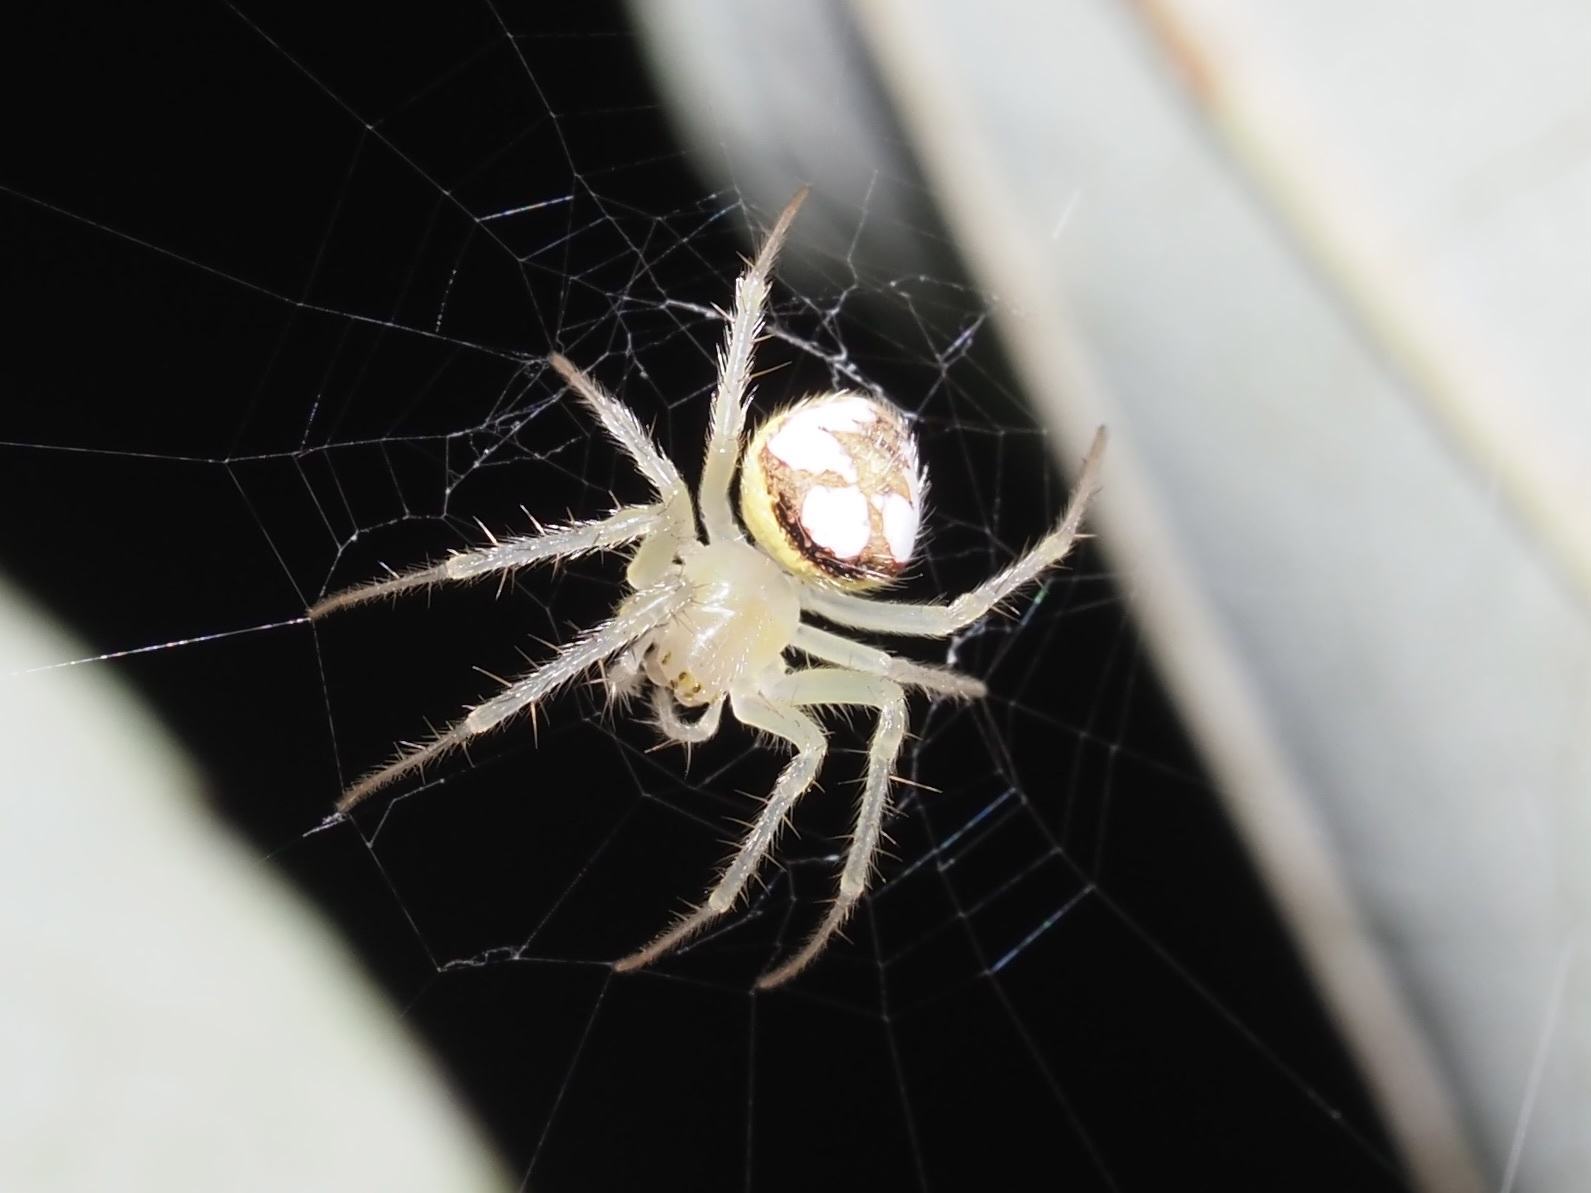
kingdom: Animalia
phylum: Arthropoda
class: Arachnida
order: Araneae
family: Araneidae
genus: Araneus
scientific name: Araneus guttulatus
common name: Red-backed orbweaver
